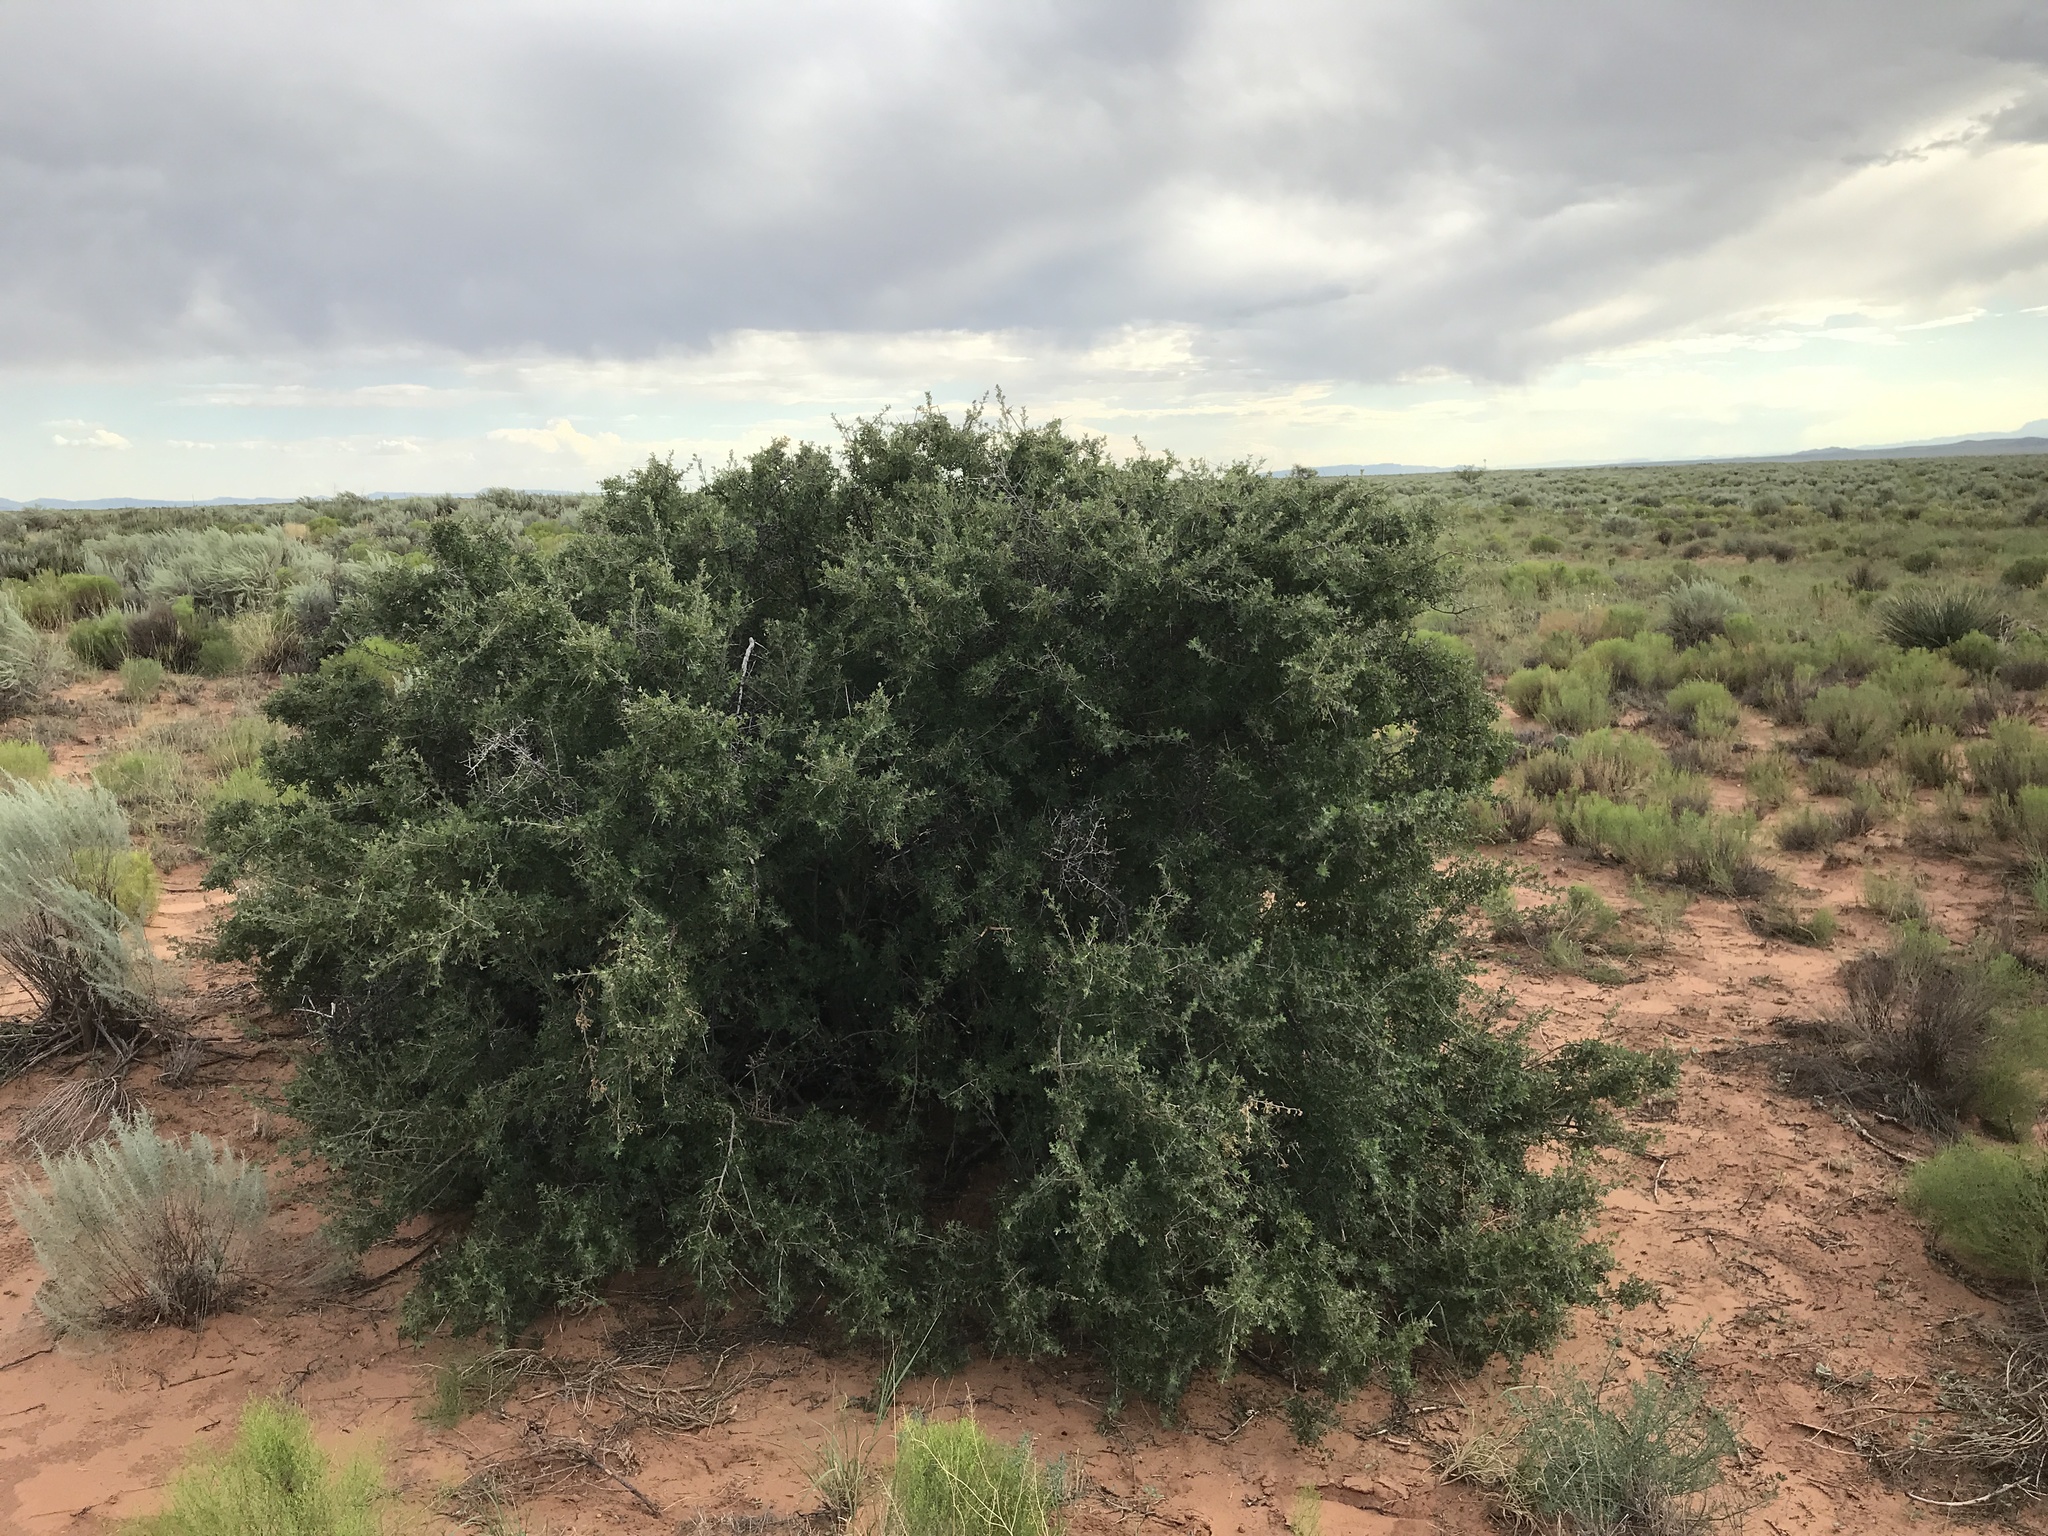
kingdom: Plantae
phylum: Tracheophyta
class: Magnoliopsida
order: Sapindales
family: Anacardiaceae
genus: Rhus
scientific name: Rhus microphylla
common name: Desert sumac
